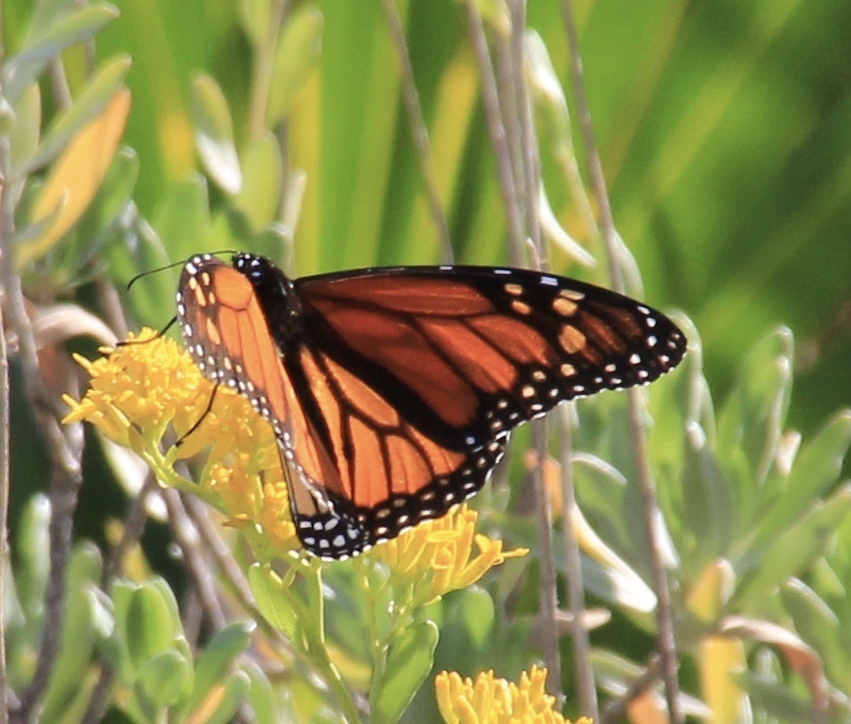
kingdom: Animalia
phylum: Arthropoda
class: Insecta
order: Lepidoptera
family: Nymphalidae
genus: Danaus
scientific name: Danaus plexippus
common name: Monarch
